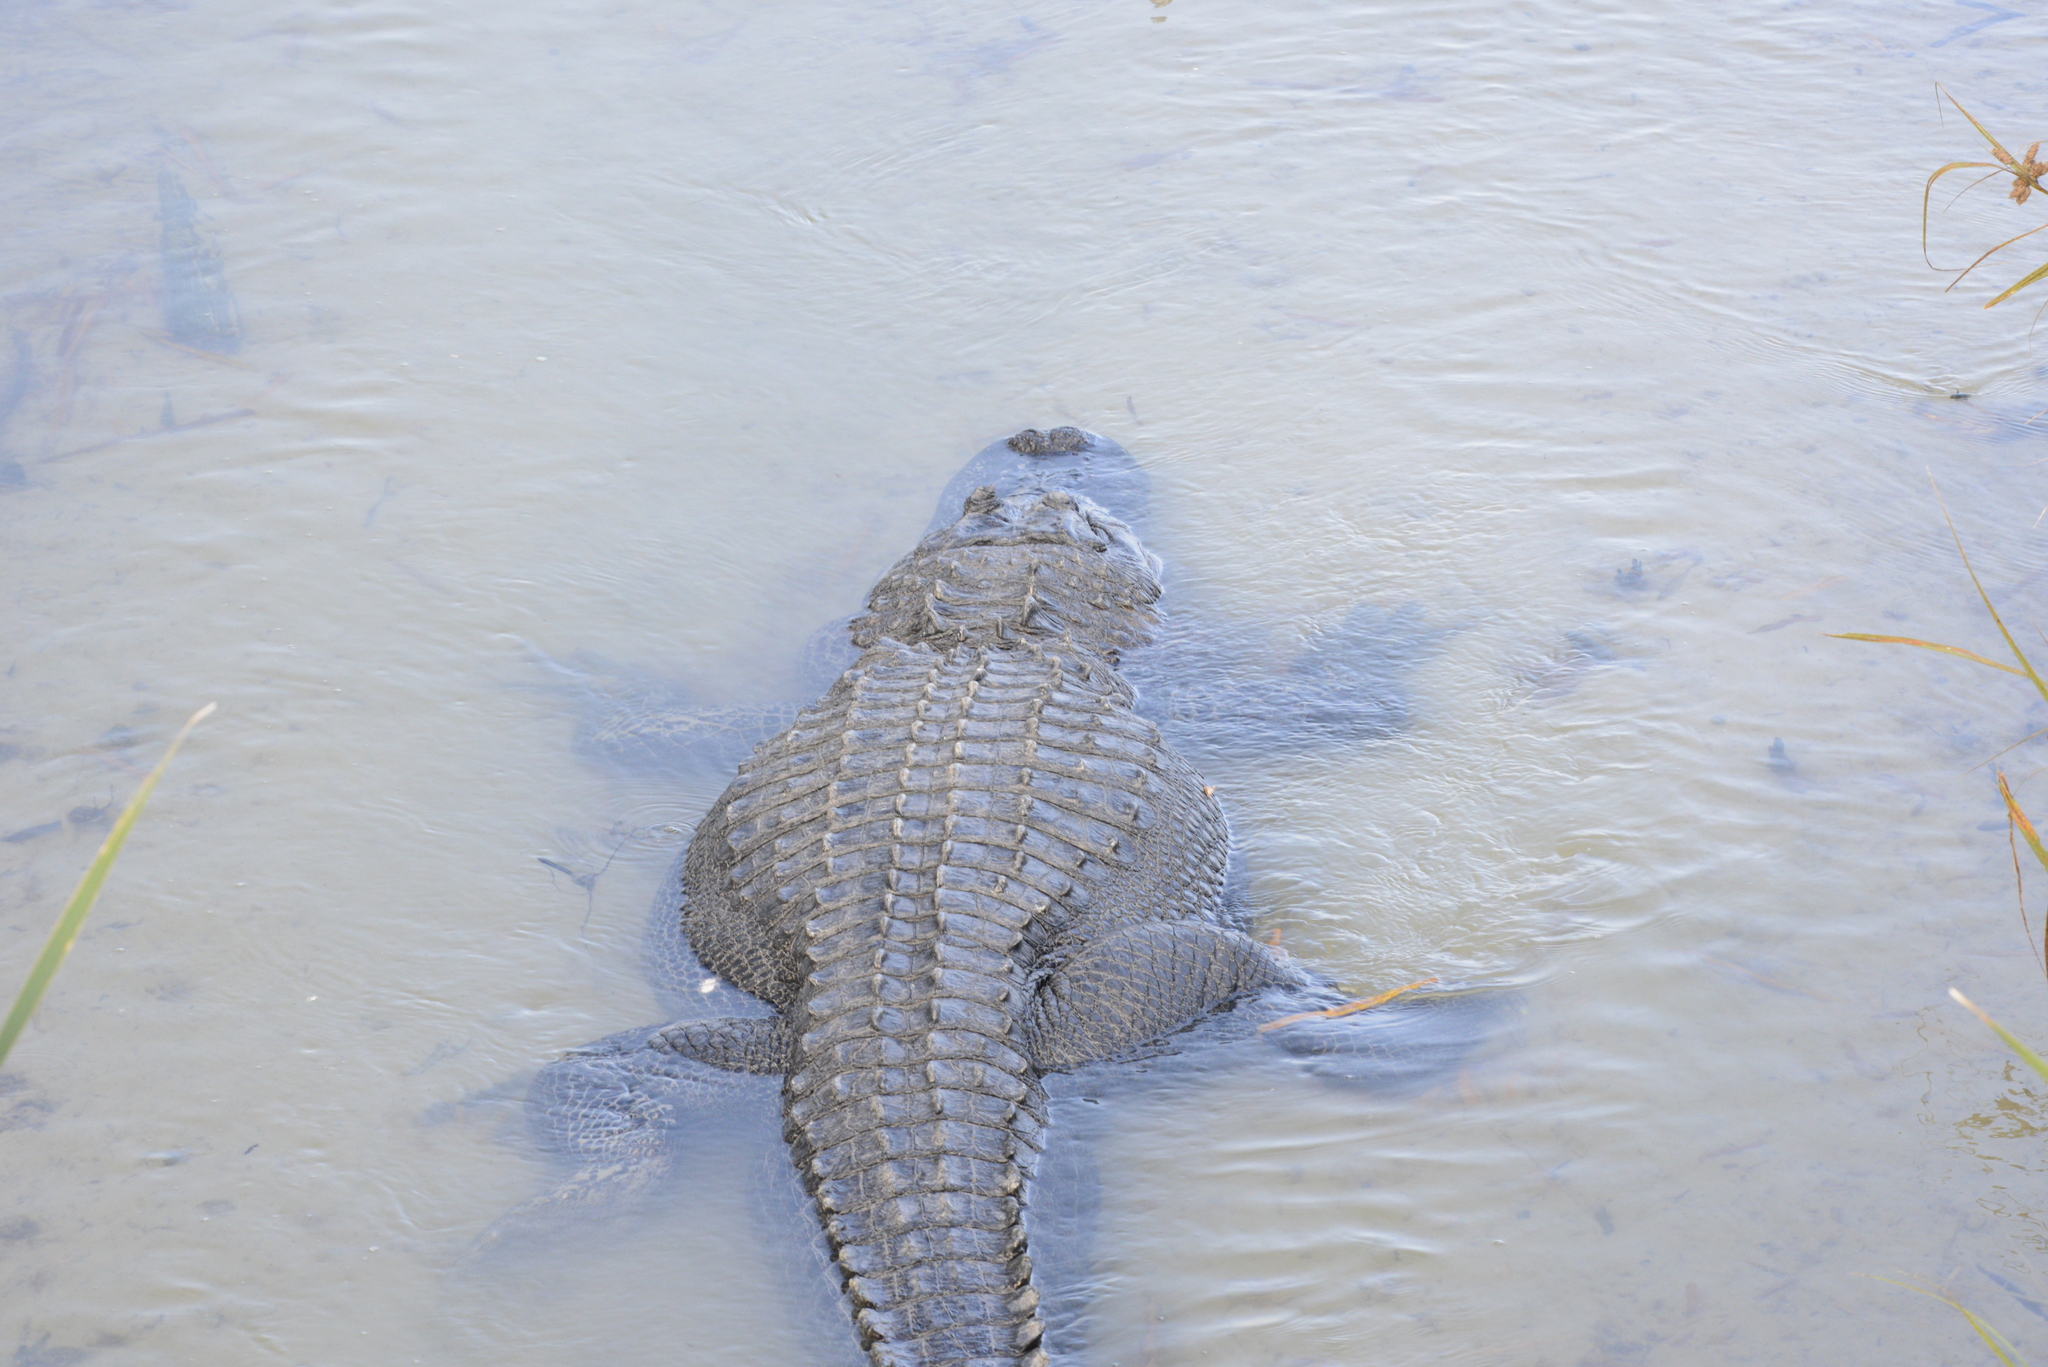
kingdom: Animalia
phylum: Chordata
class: Crocodylia
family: Alligatoridae
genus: Alligator
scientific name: Alligator mississippiensis
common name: American alligator
